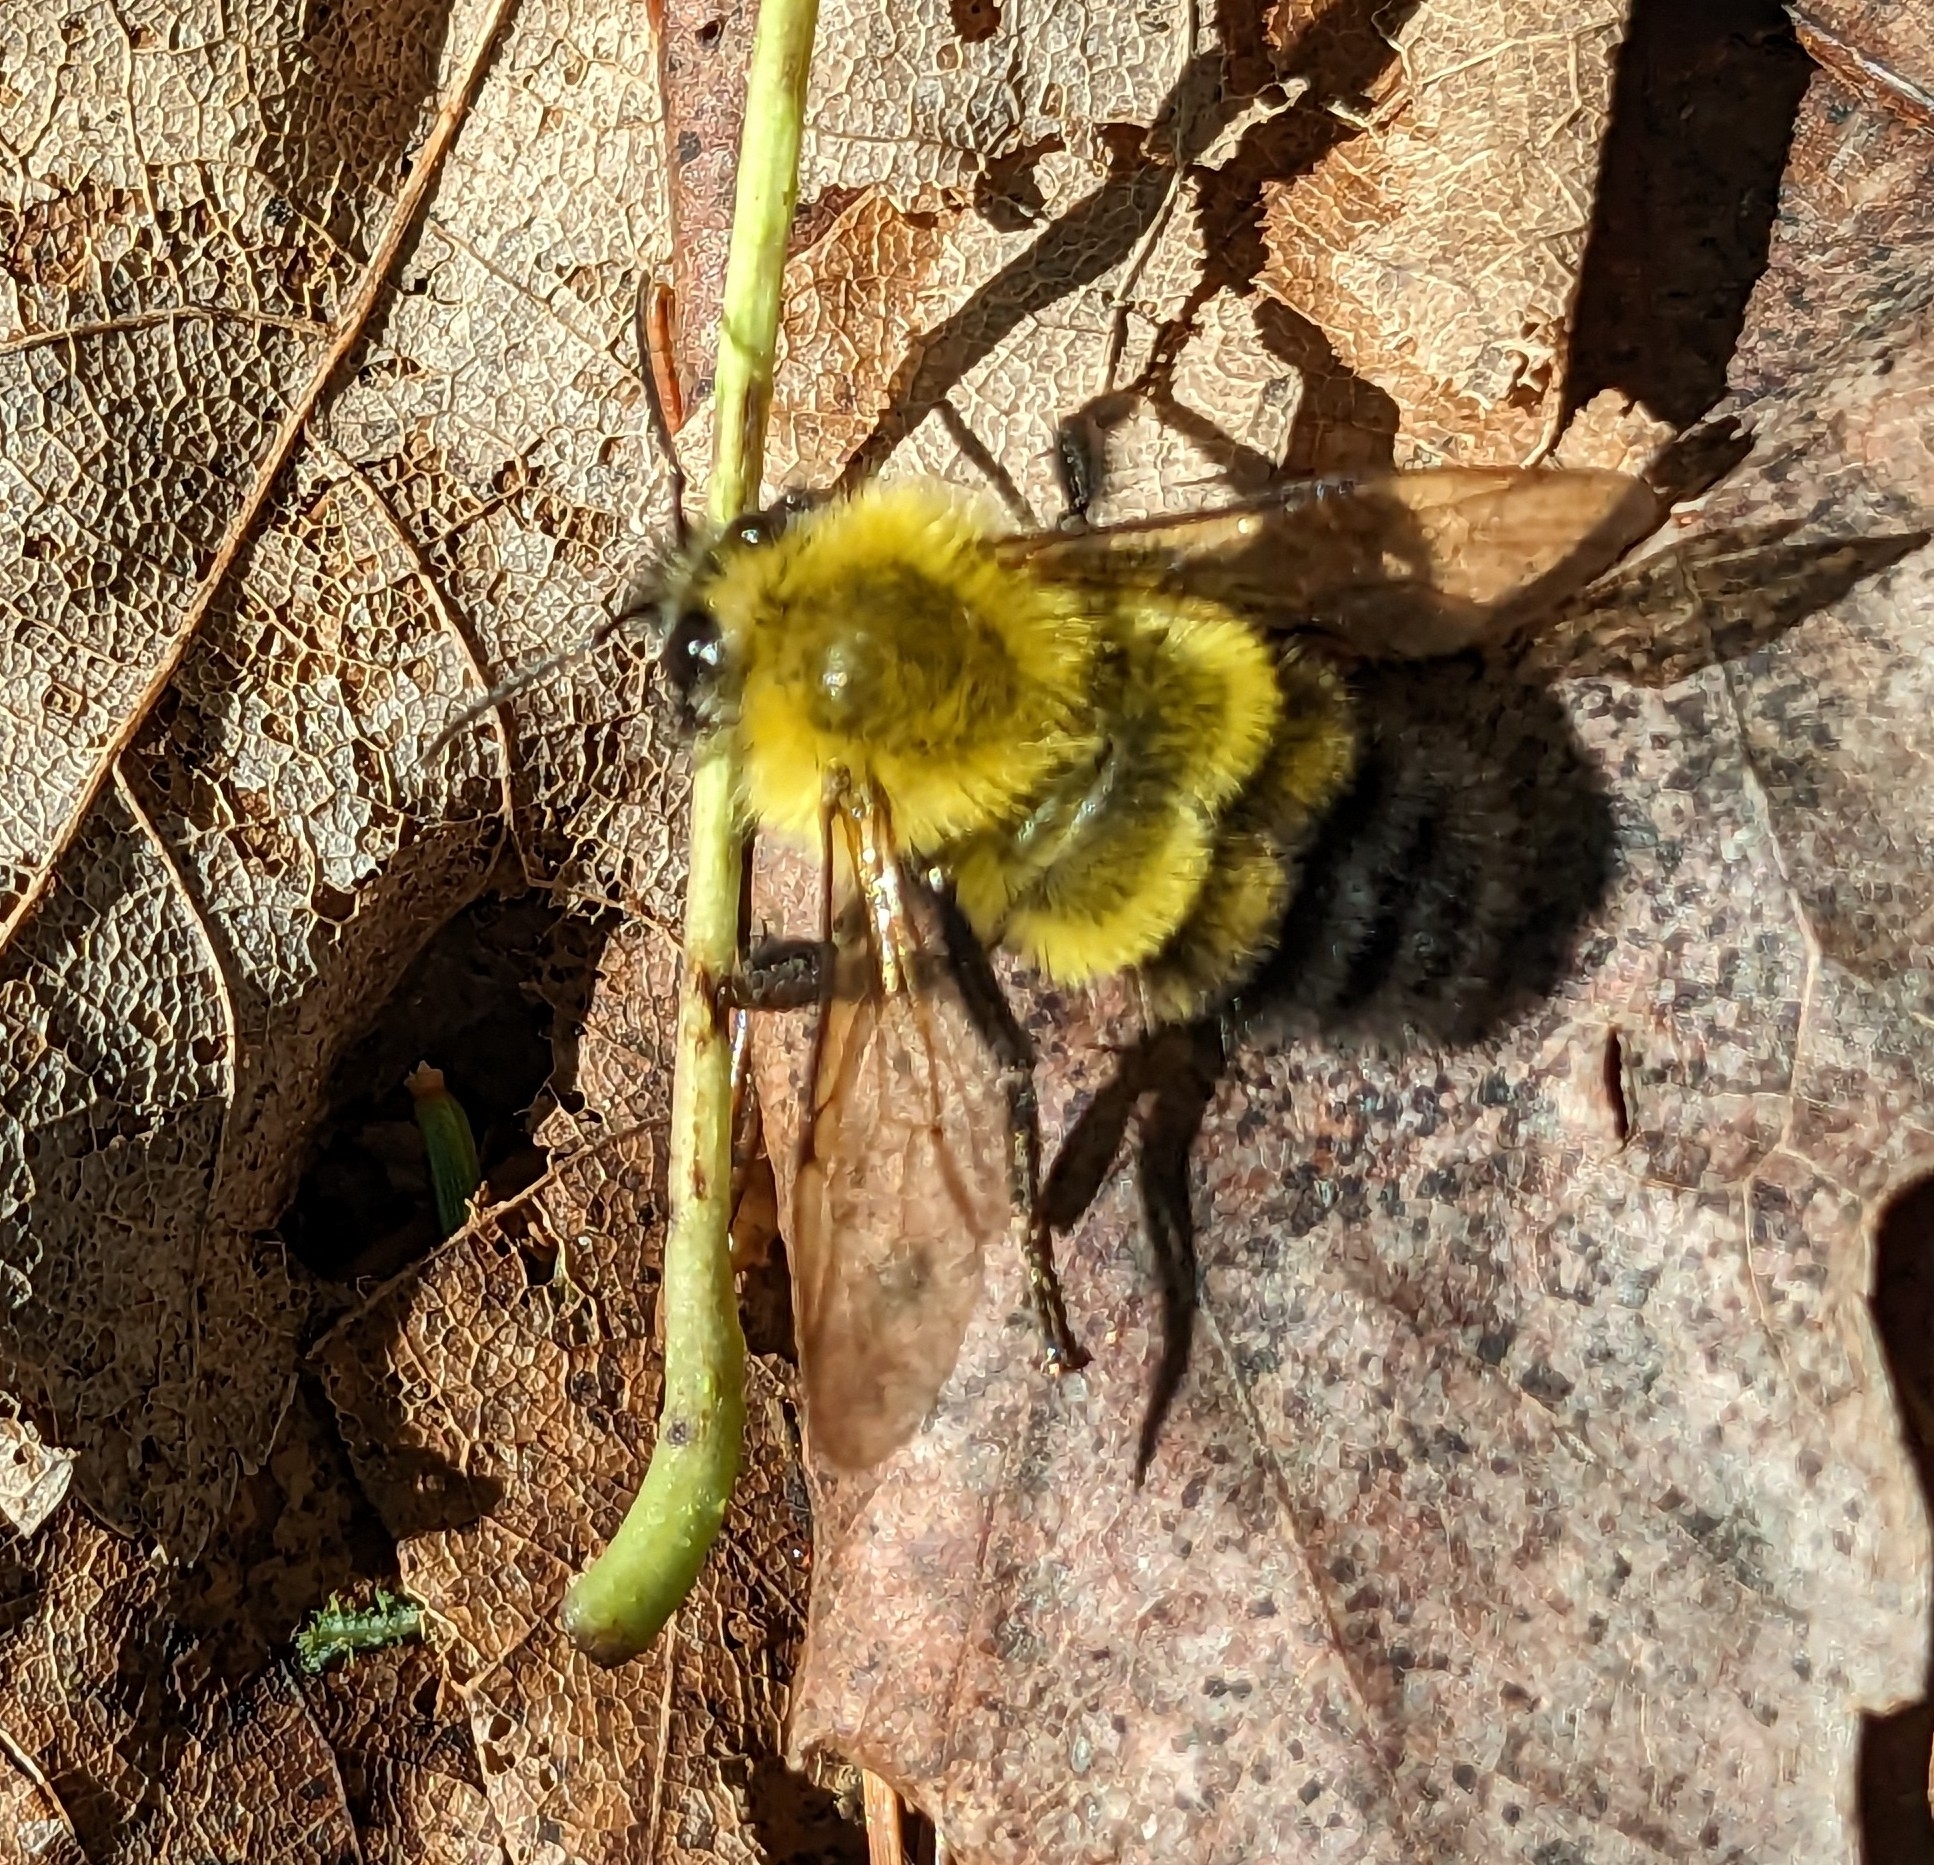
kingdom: Animalia
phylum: Arthropoda
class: Insecta
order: Hymenoptera
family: Apidae
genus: Bombus
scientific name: Bombus perplexus
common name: Confusing bumble bee
